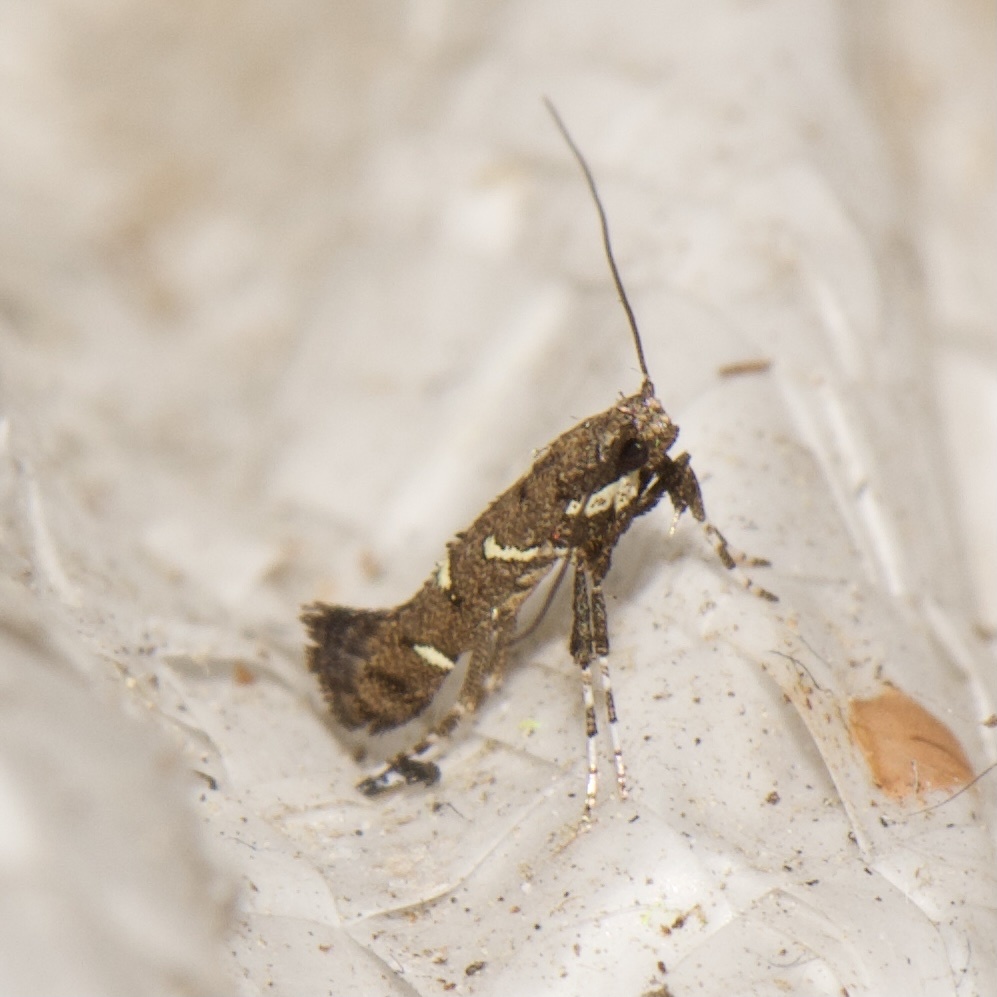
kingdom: Animalia
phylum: Arthropoda
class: Insecta
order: Lepidoptera
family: Gracillariidae
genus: Caloptilia
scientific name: Caloptilia triadicae
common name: Tallow leaf roller
